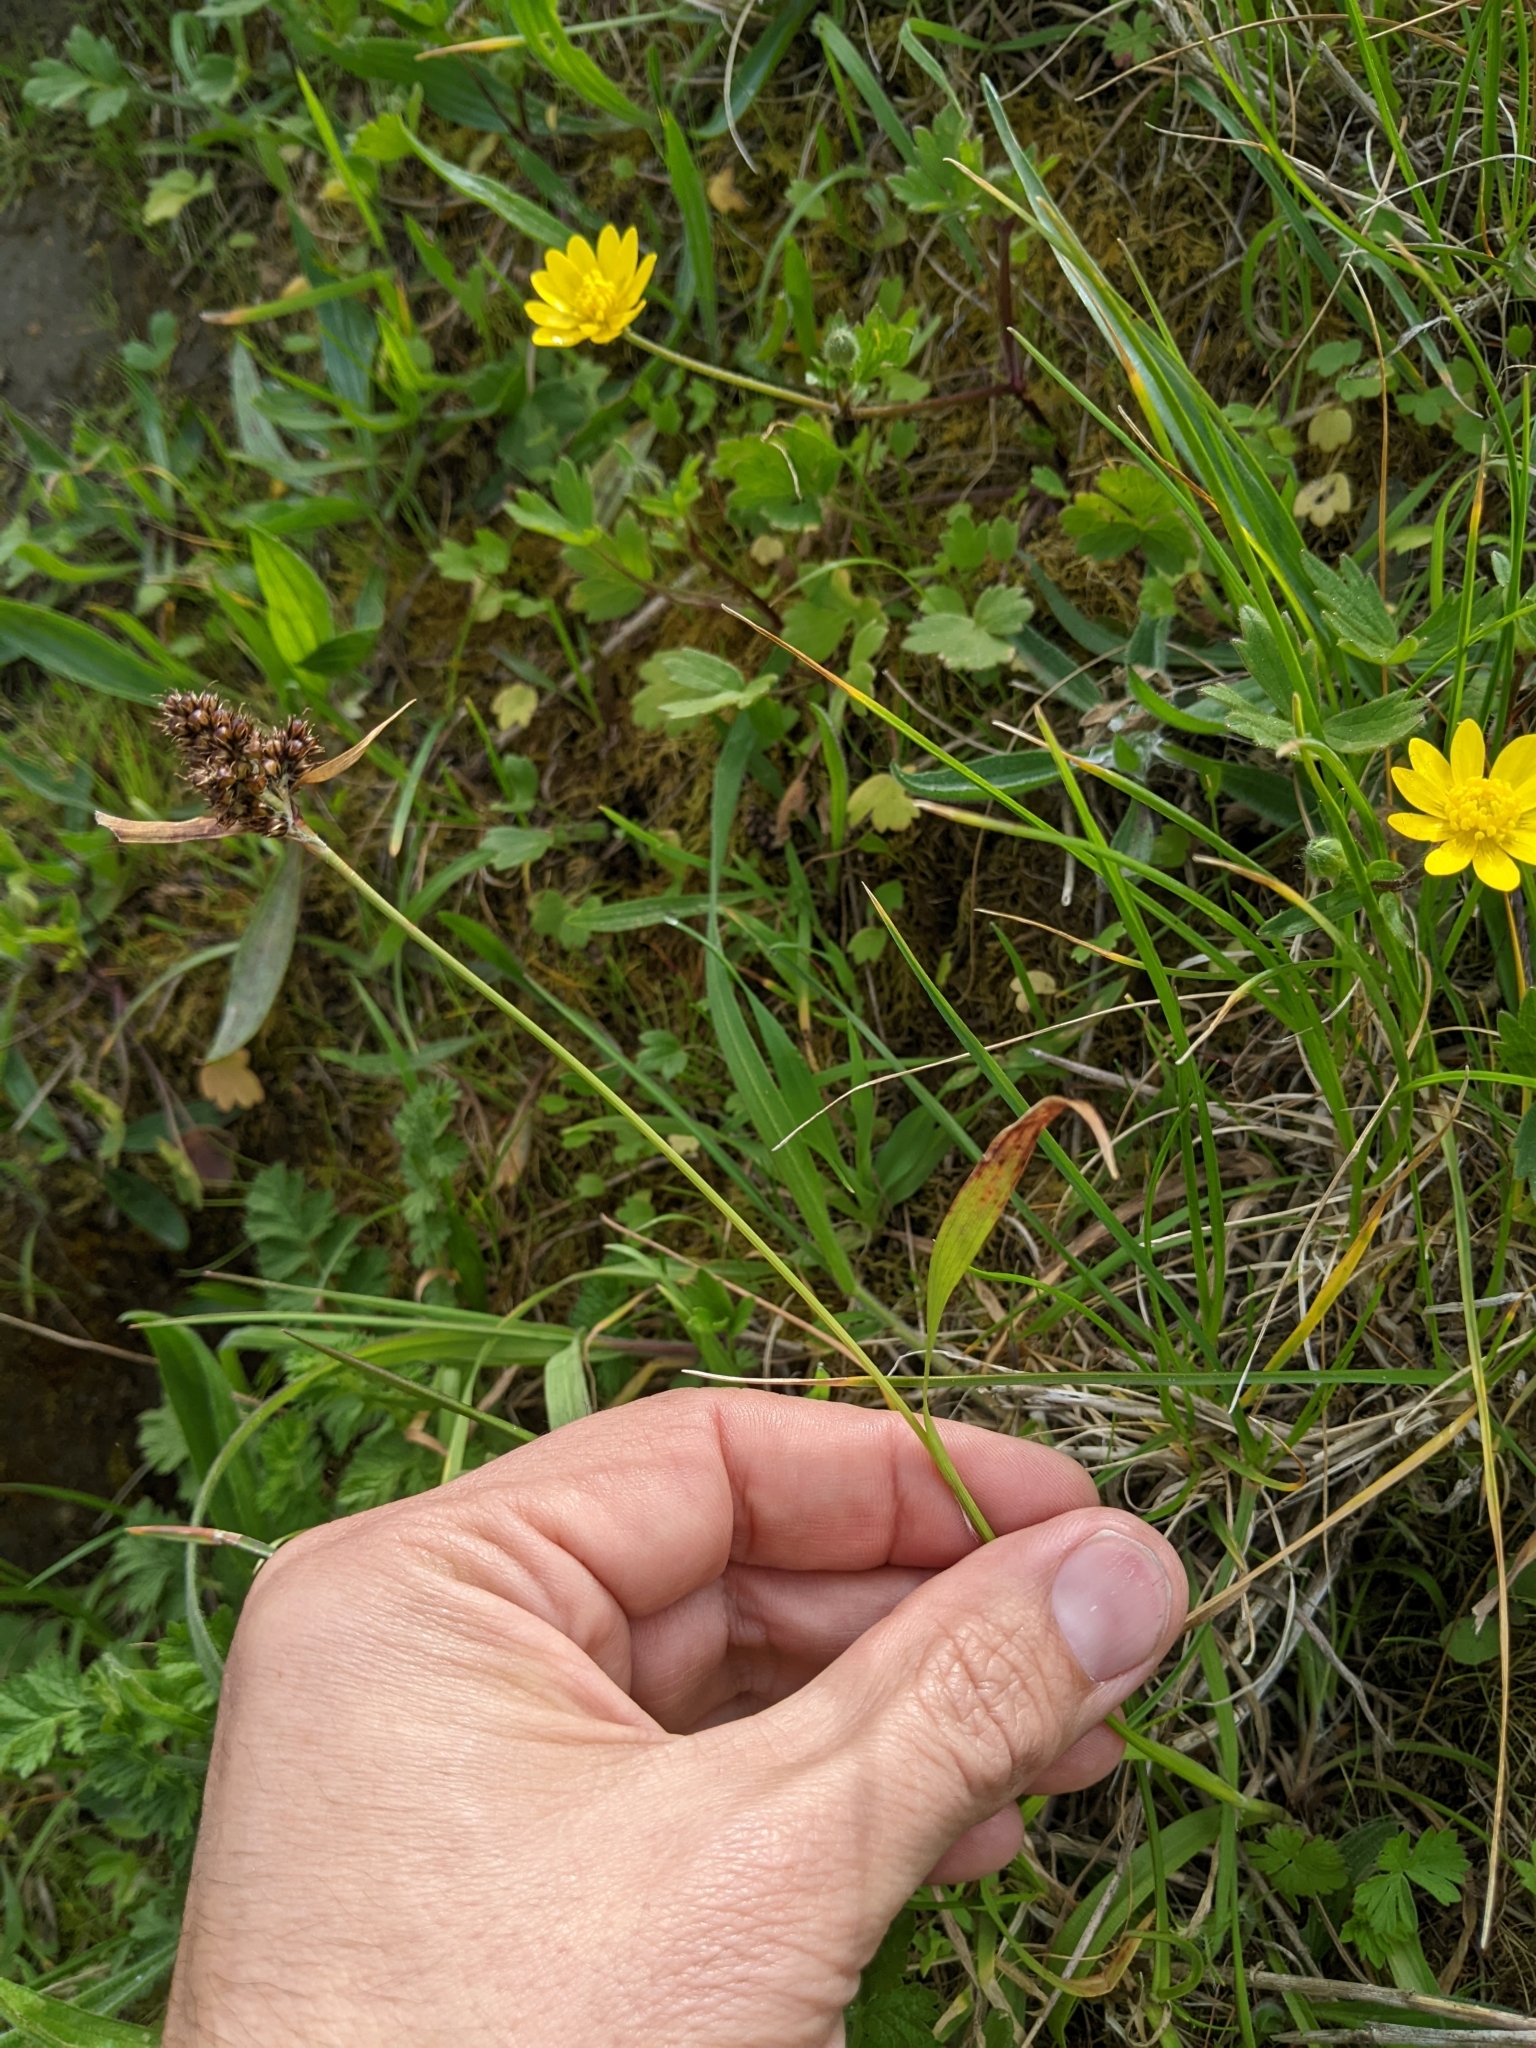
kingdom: Plantae
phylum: Tracheophyta
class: Liliopsida
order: Poales
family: Juncaceae
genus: Luzula
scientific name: Luzula comosa
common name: Pacific woodrush
